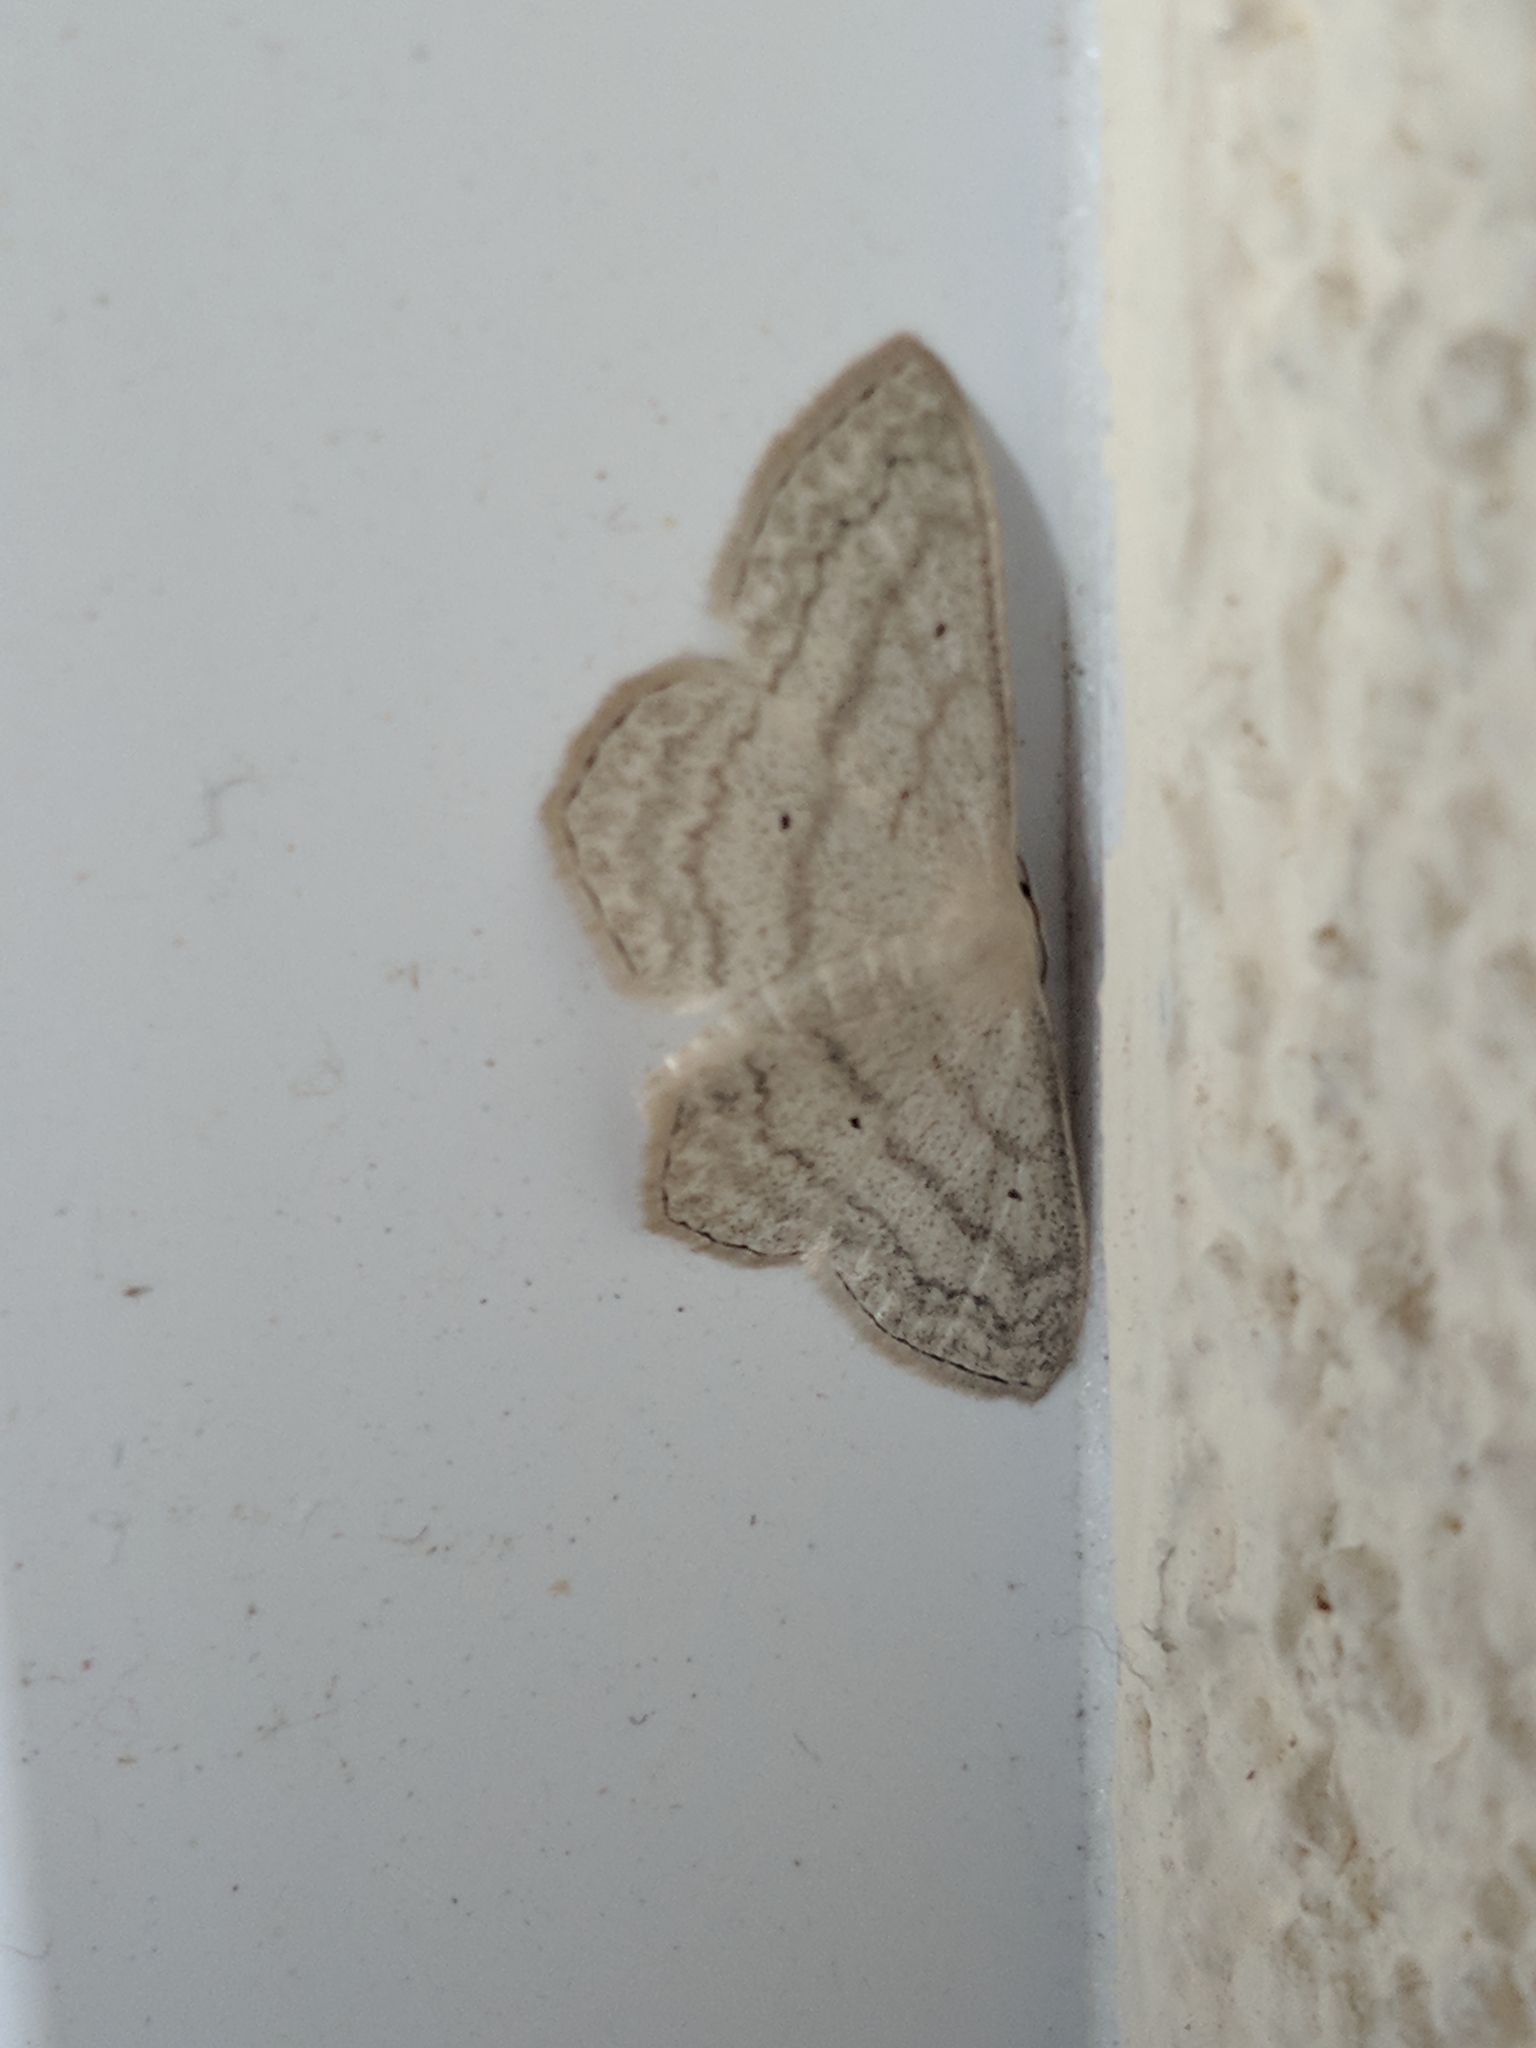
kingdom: Animalia
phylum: Arthropoda
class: Insecta
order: Lepidoptera
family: Geometridae
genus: Scopula
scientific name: Scopula nigropunctata
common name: Sub-angled wave
